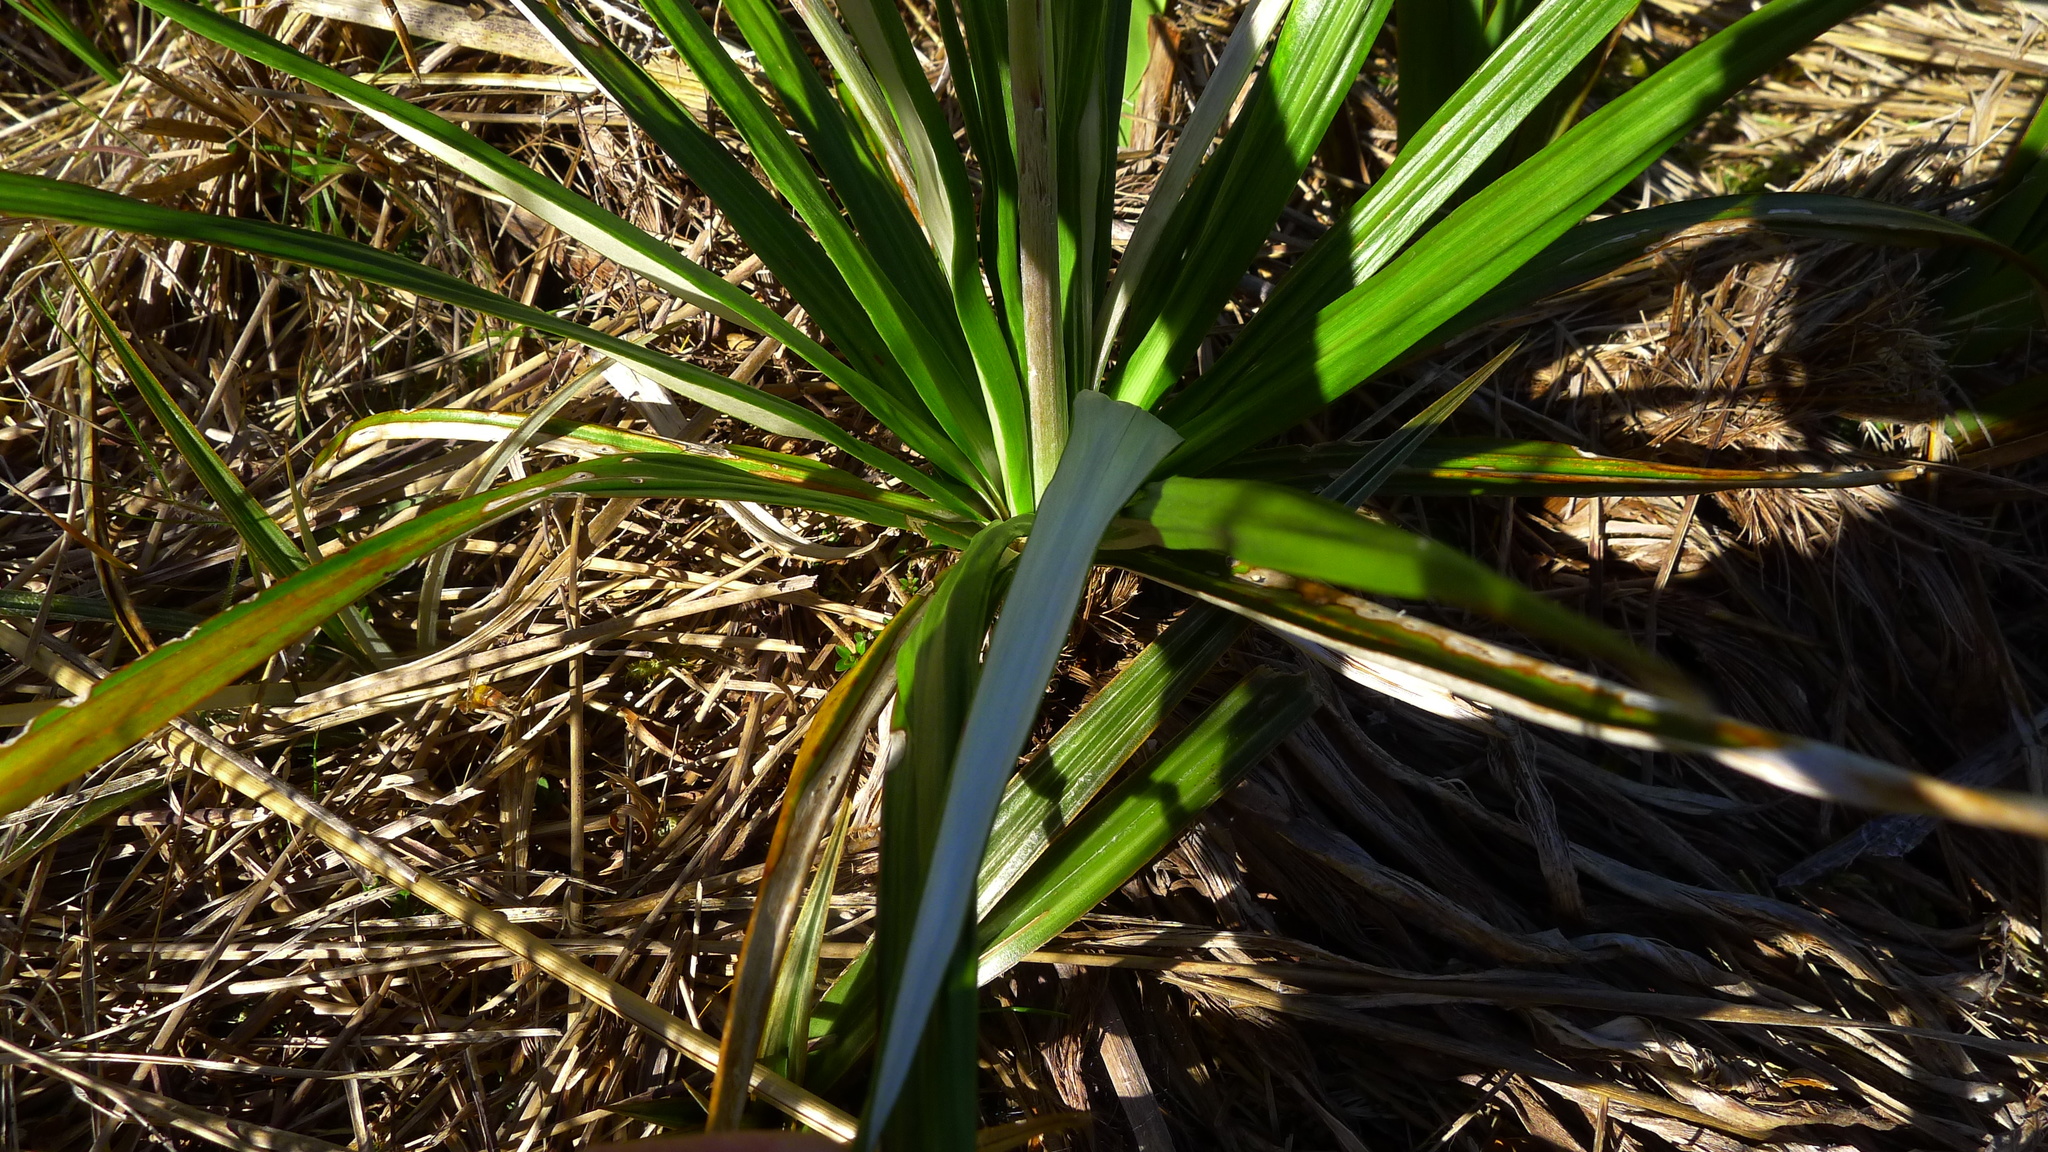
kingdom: Plantae
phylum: Tracheophyta
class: Magnoliopsida
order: Asterales
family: Asteraceae
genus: Celmisia
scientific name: Celmisia petriei
